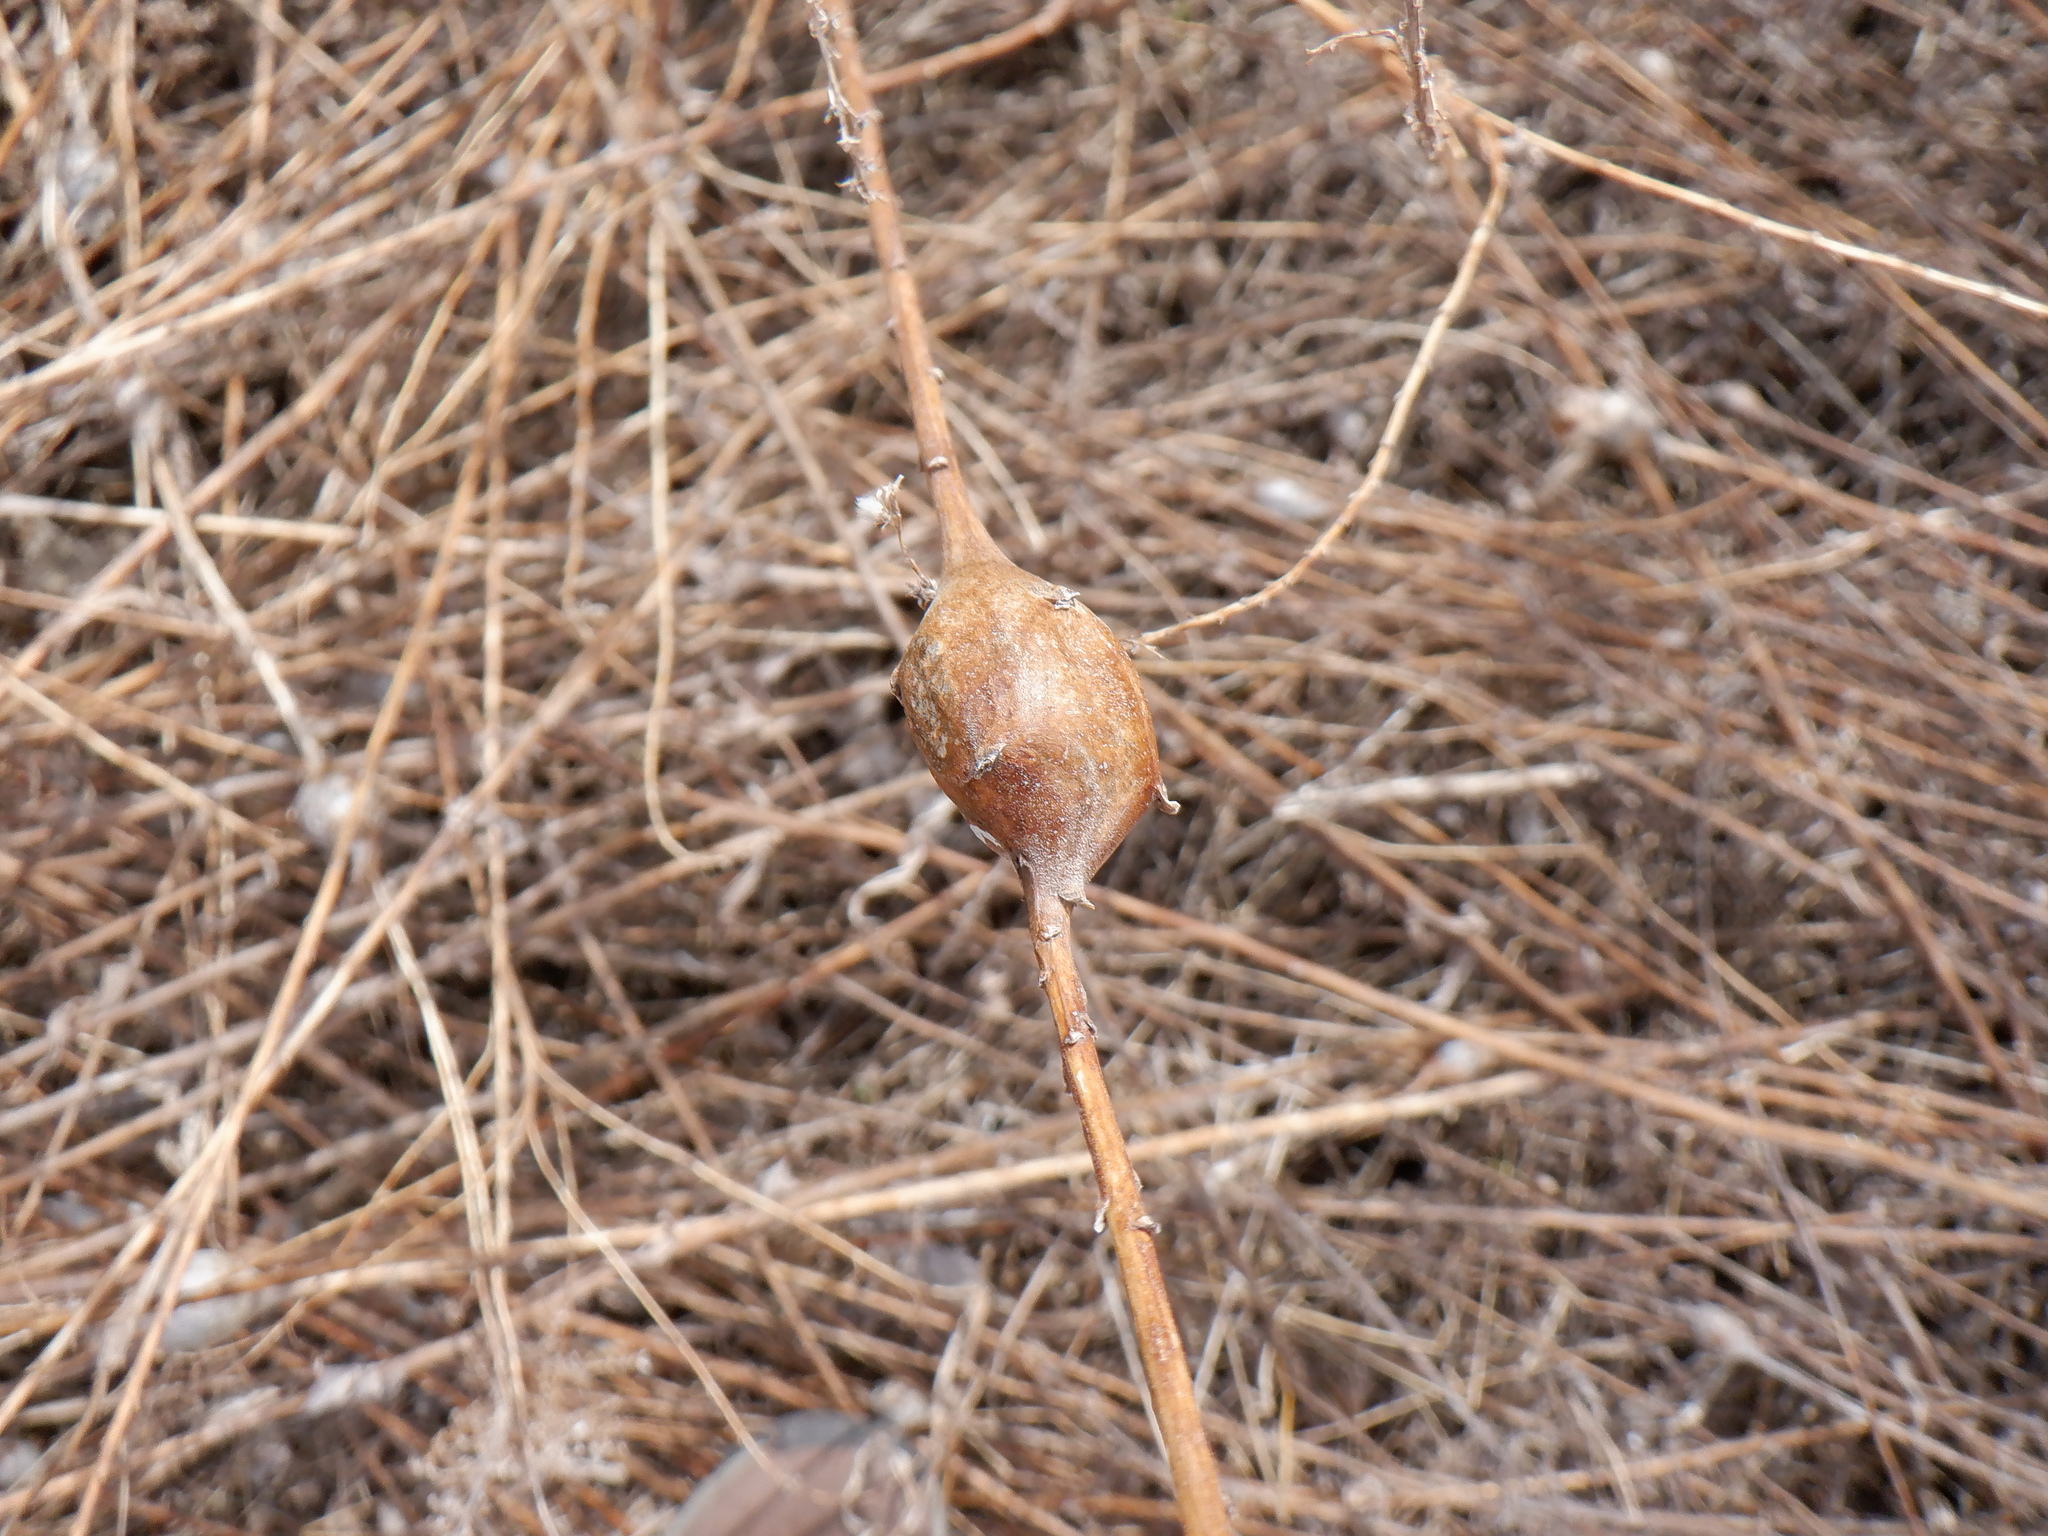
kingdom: Animalia
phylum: Arthropoda
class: Insecta
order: Diptera
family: Tephritidae
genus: Eurosta
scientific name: Eurosta solidaginis
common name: Goldenrod gall fly
